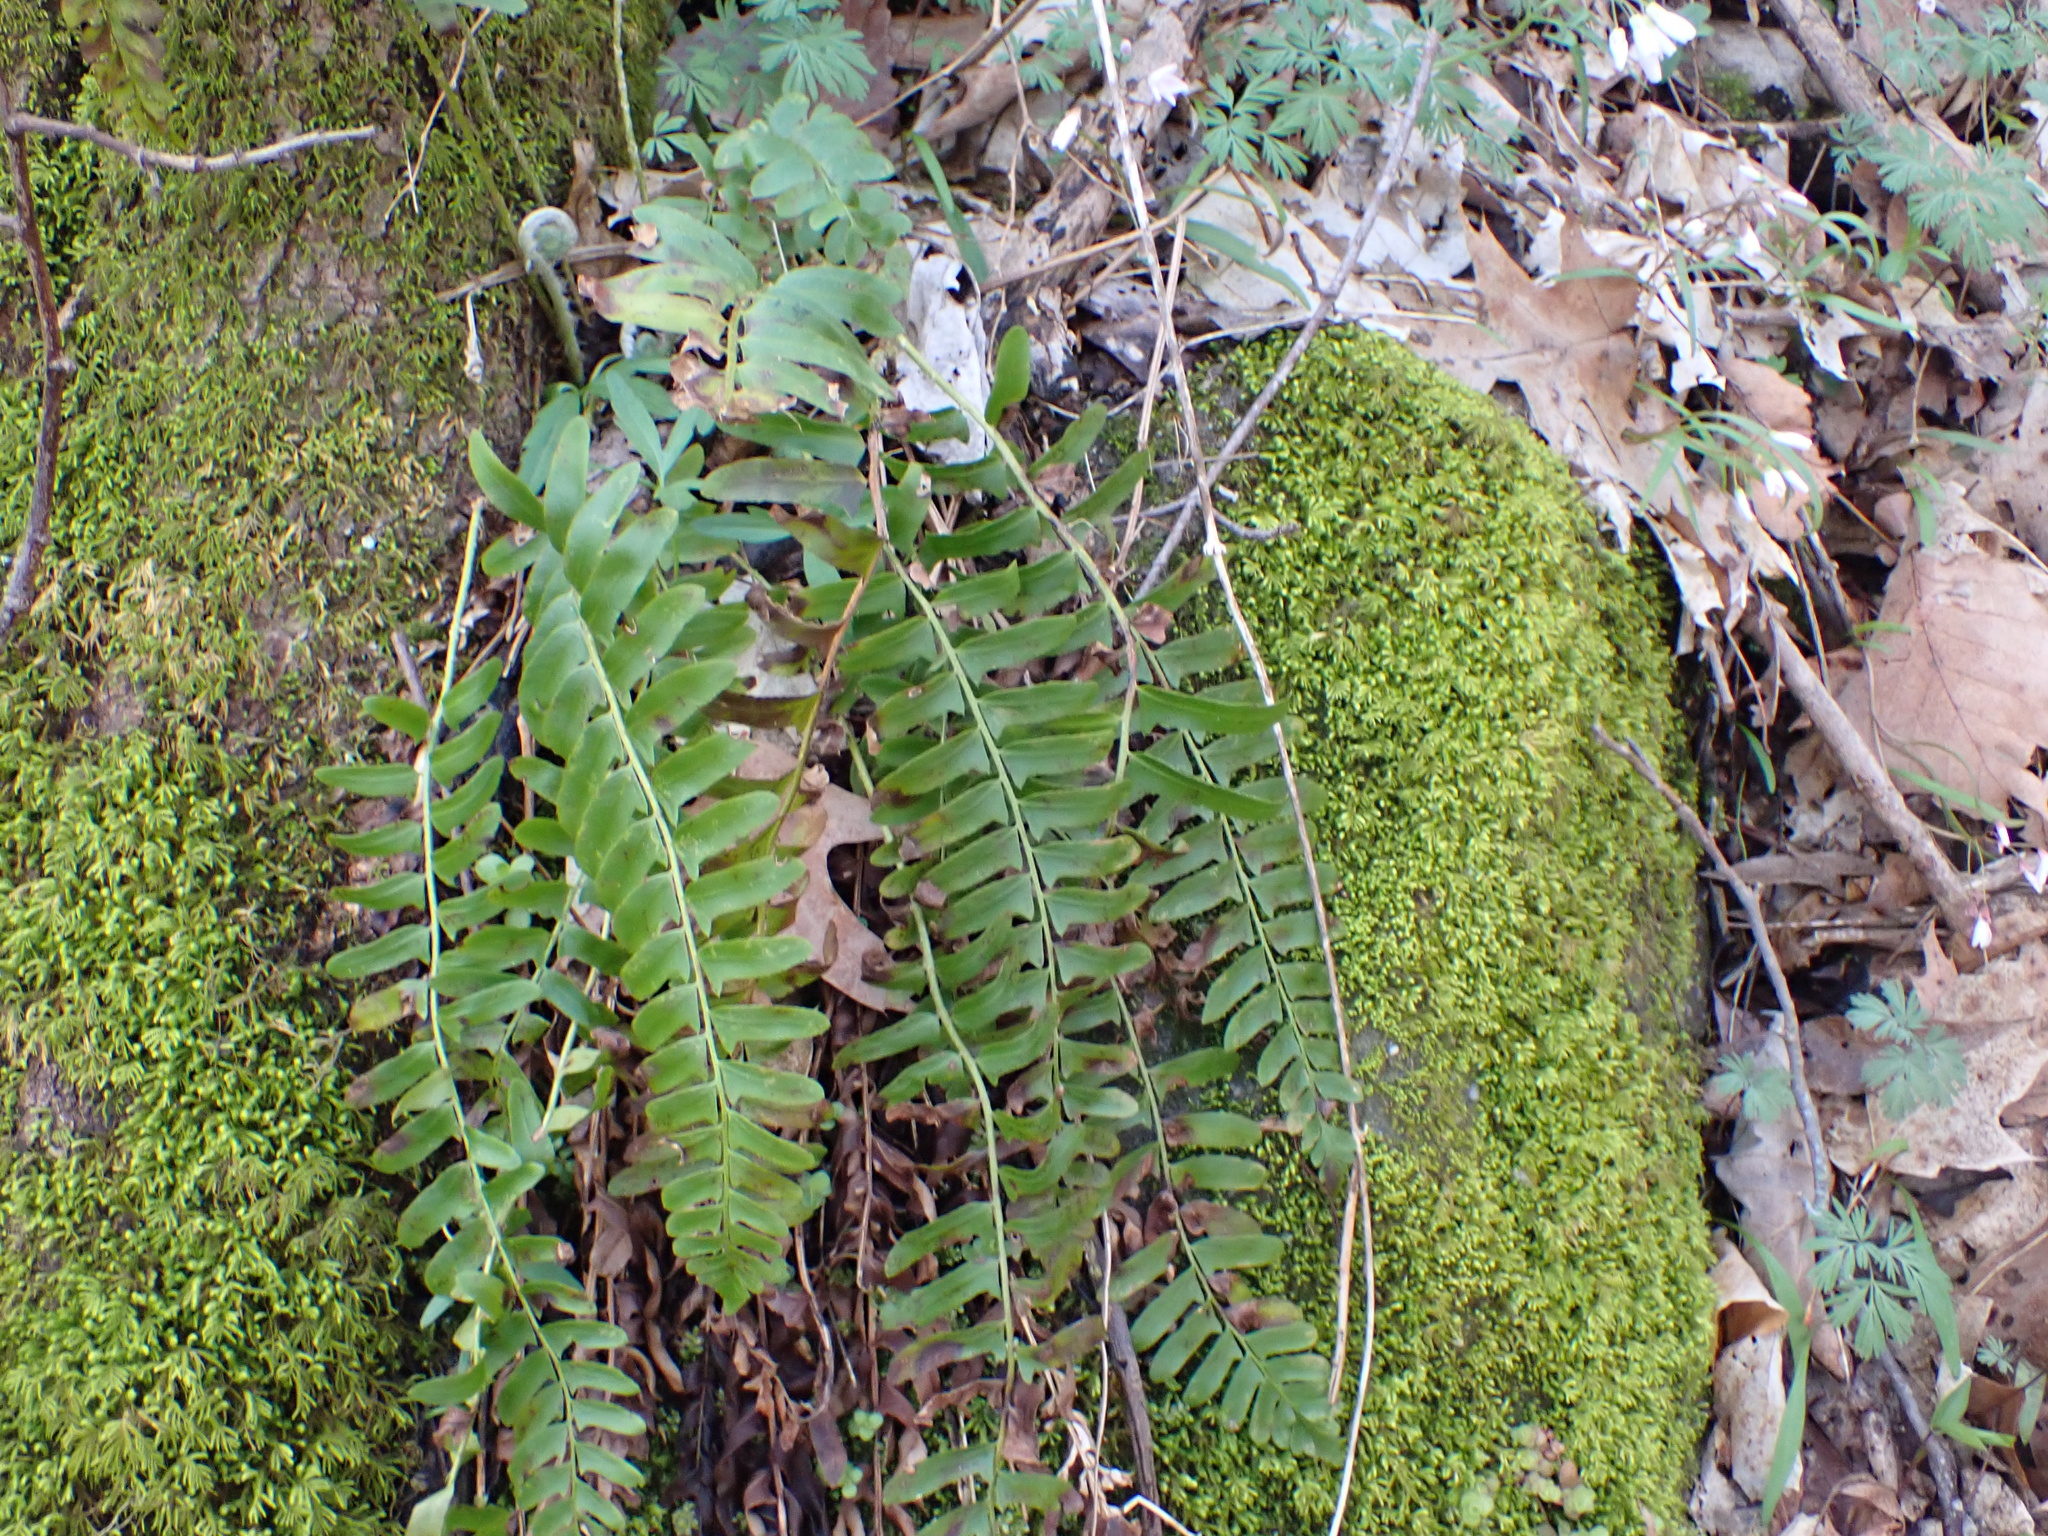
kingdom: Plantae
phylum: Tracheophyta
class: Polypodiopsida
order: Polypodiales
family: Dryopteridaceae
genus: Polystichum
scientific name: Polystichum acrostichoides
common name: Christmas fern
